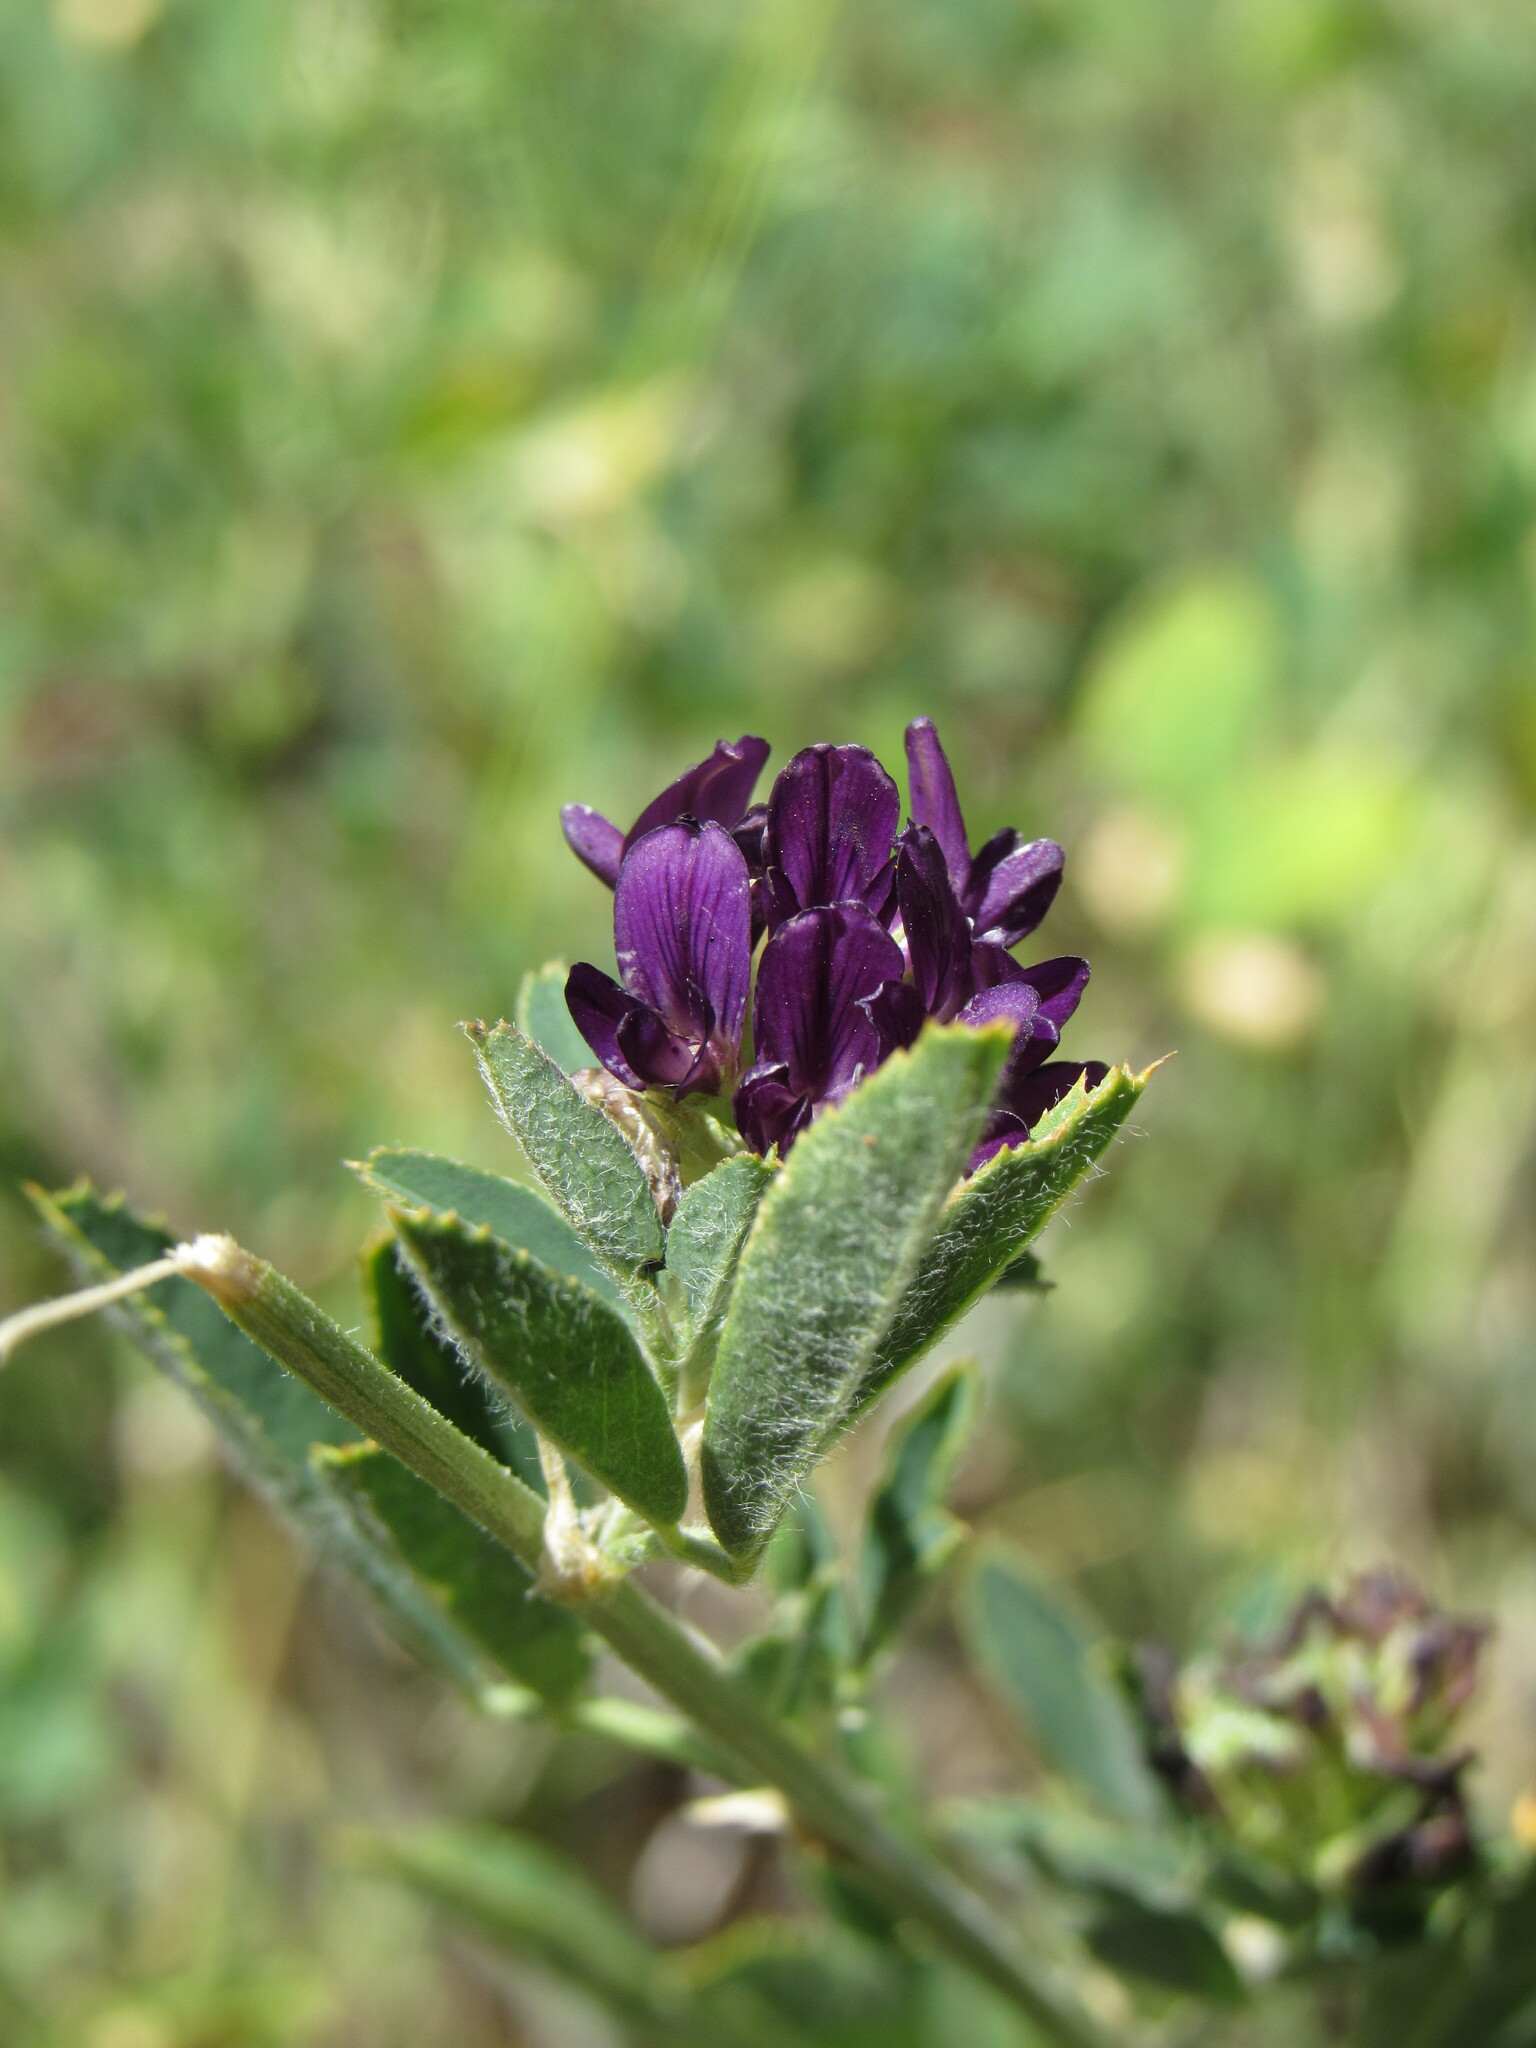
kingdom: Plantae
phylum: Tracheophyta
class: Magnoliopsida
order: Fabales
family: Fabaceae
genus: Medicago
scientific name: Medicago sativa
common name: Alfalfa
